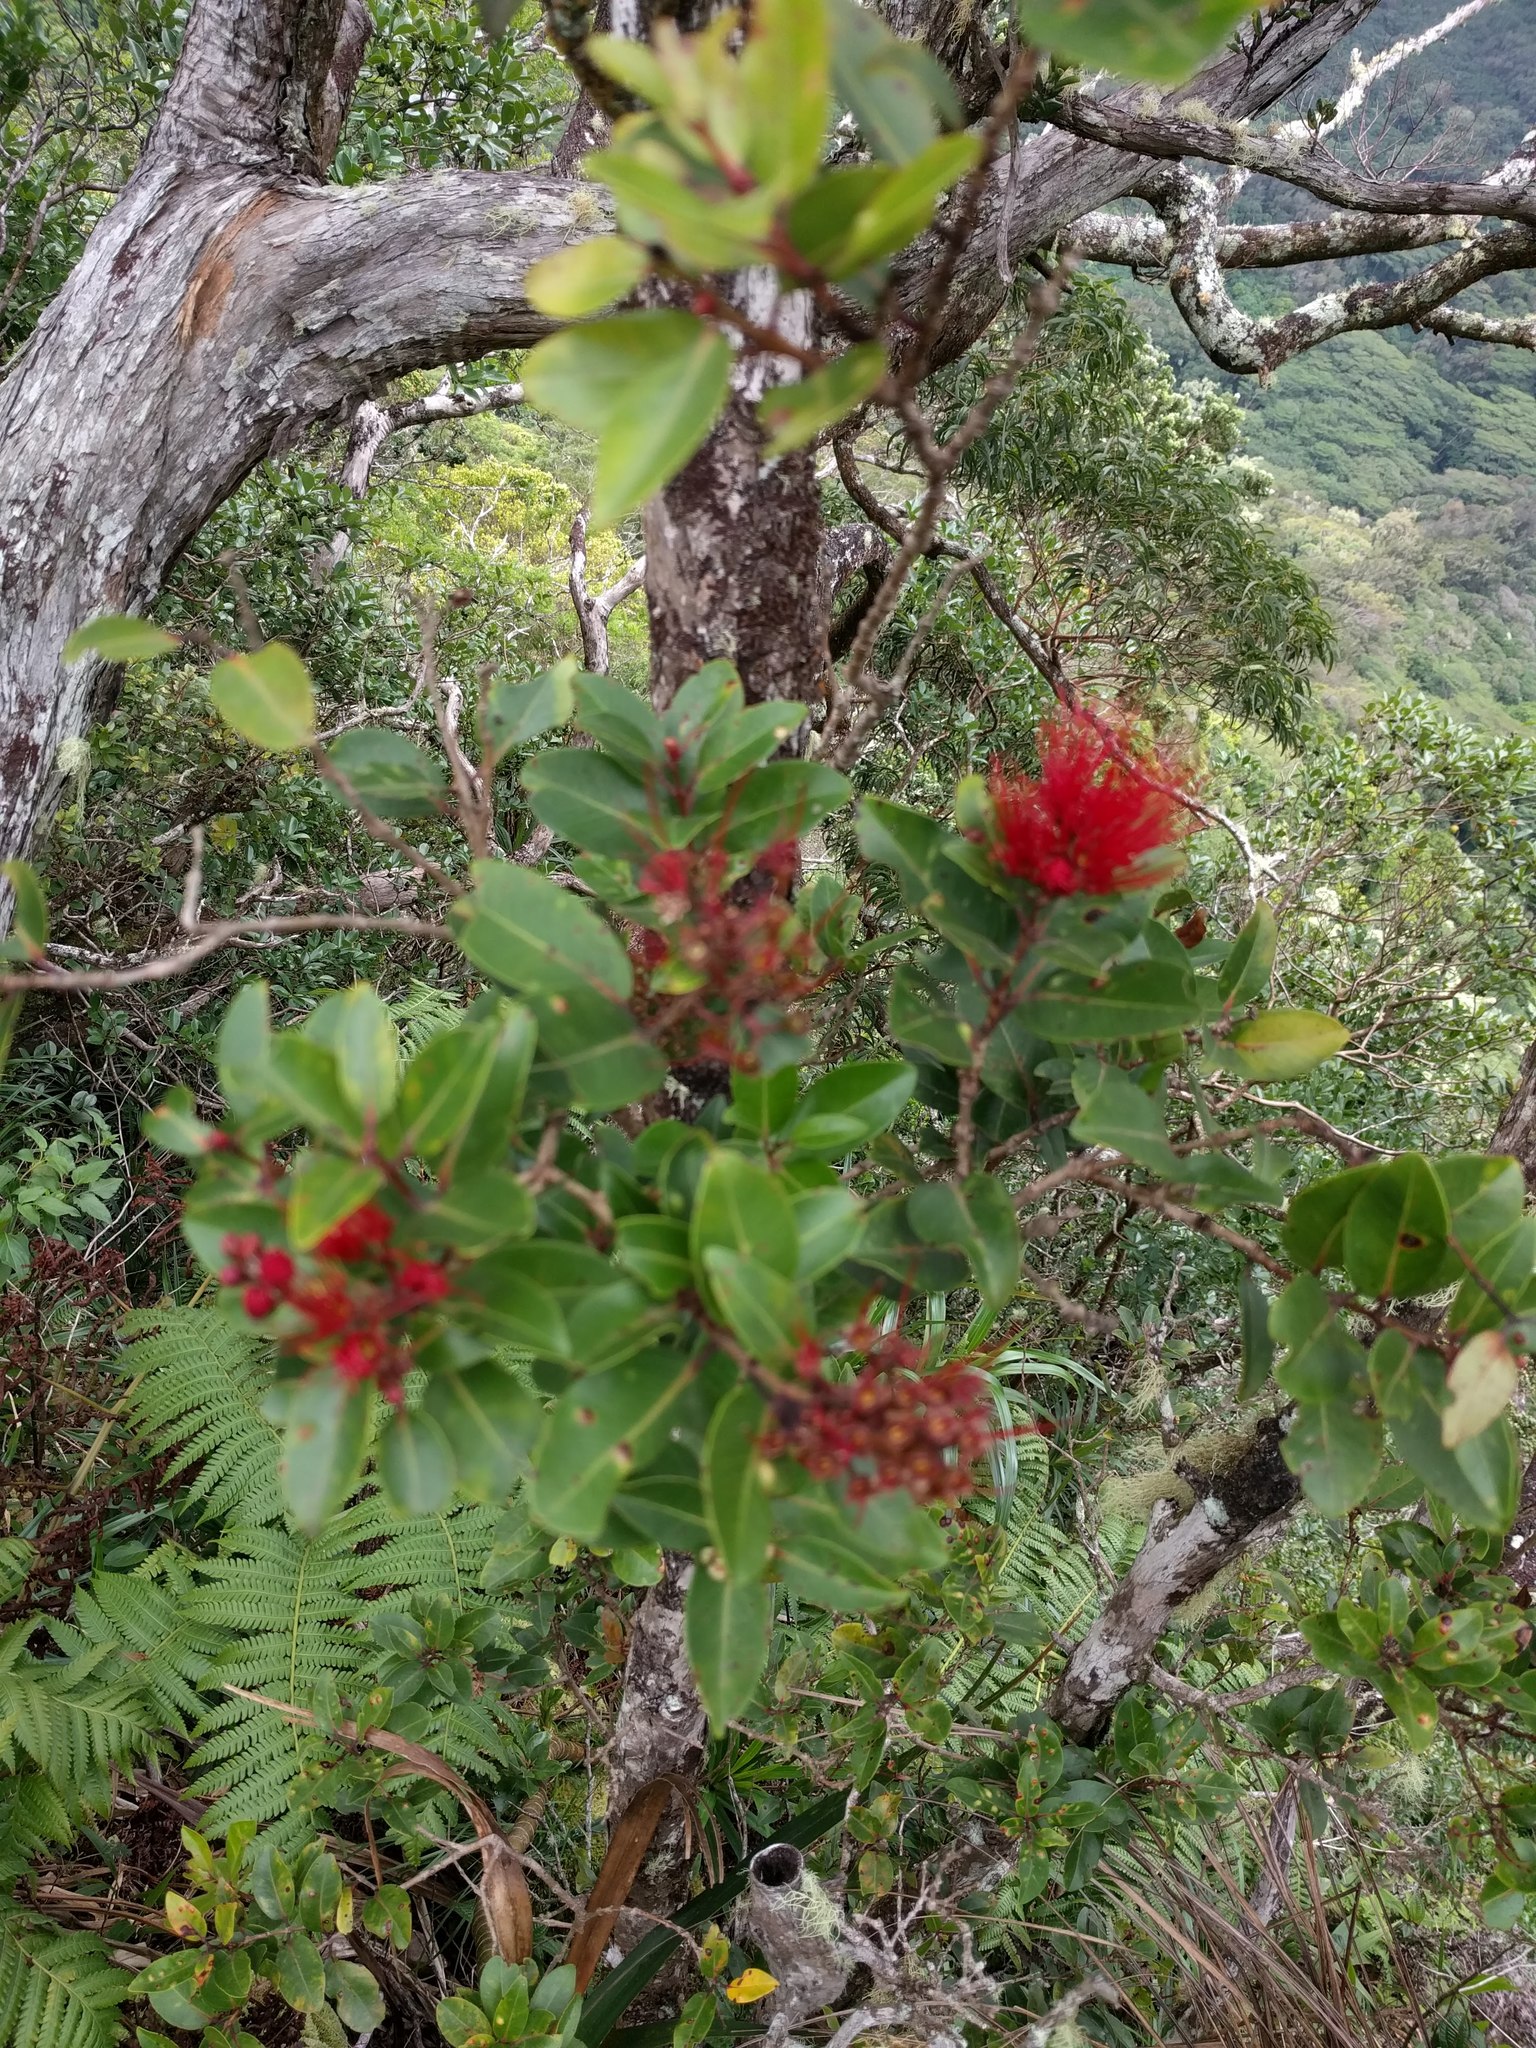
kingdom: Plantae
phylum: Tracheophyta
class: Magnoliopsida
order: Myrtales
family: Myrtaceae
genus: Metrosideros
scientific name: Metrosideros polymorpha
